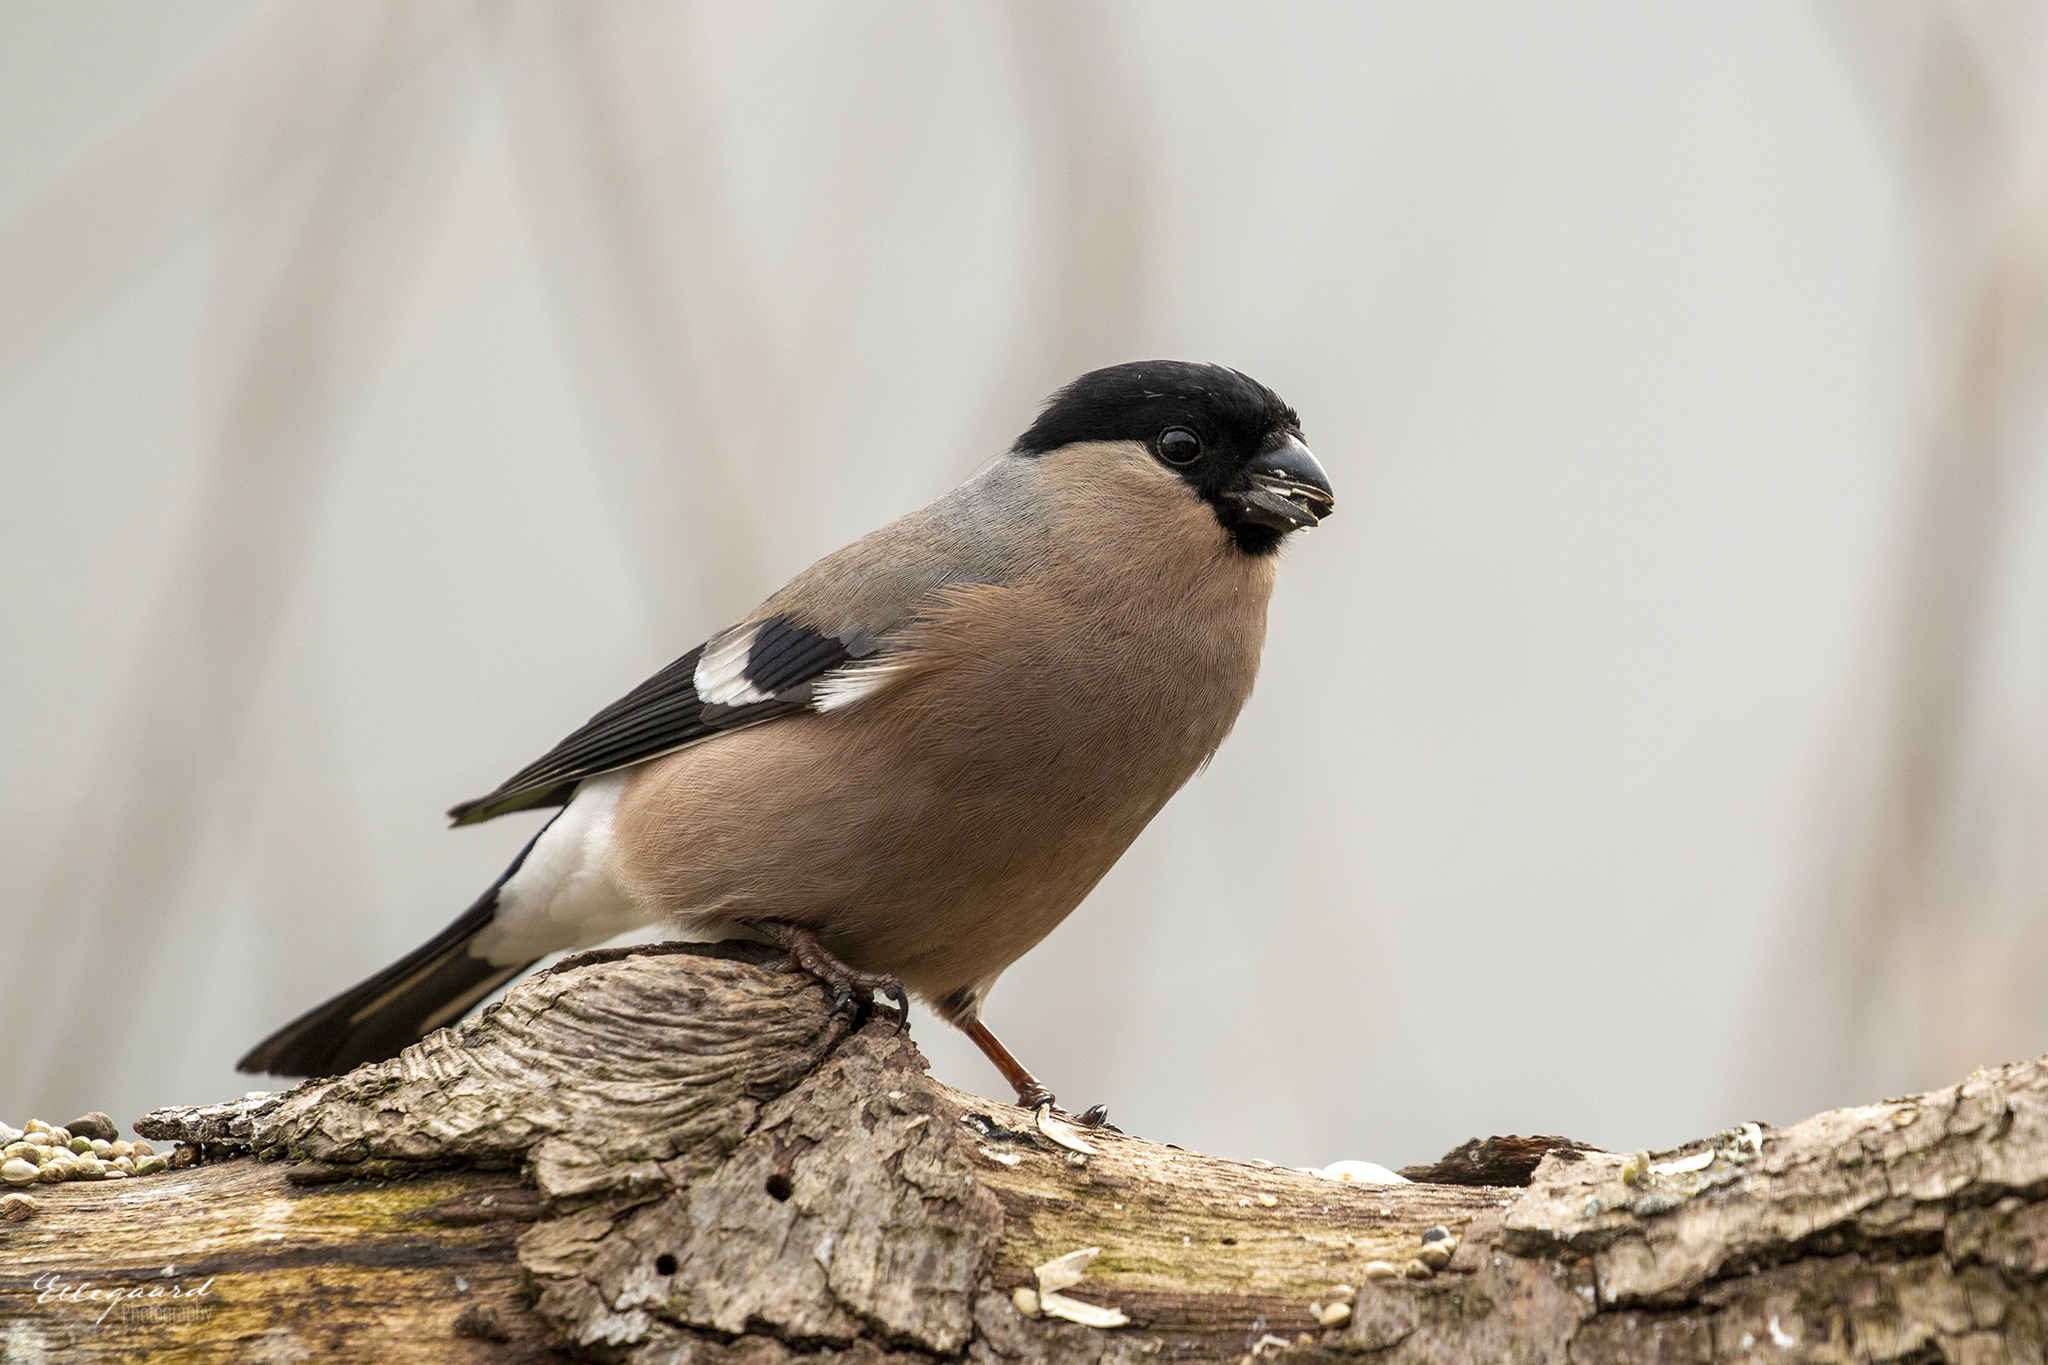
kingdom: Animalia
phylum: Chordata
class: Aves
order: Passeriformes
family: Fringillidae
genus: Pyrrhula
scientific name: Pyrrhula pyrrhula
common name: Eurasian bullfinch
